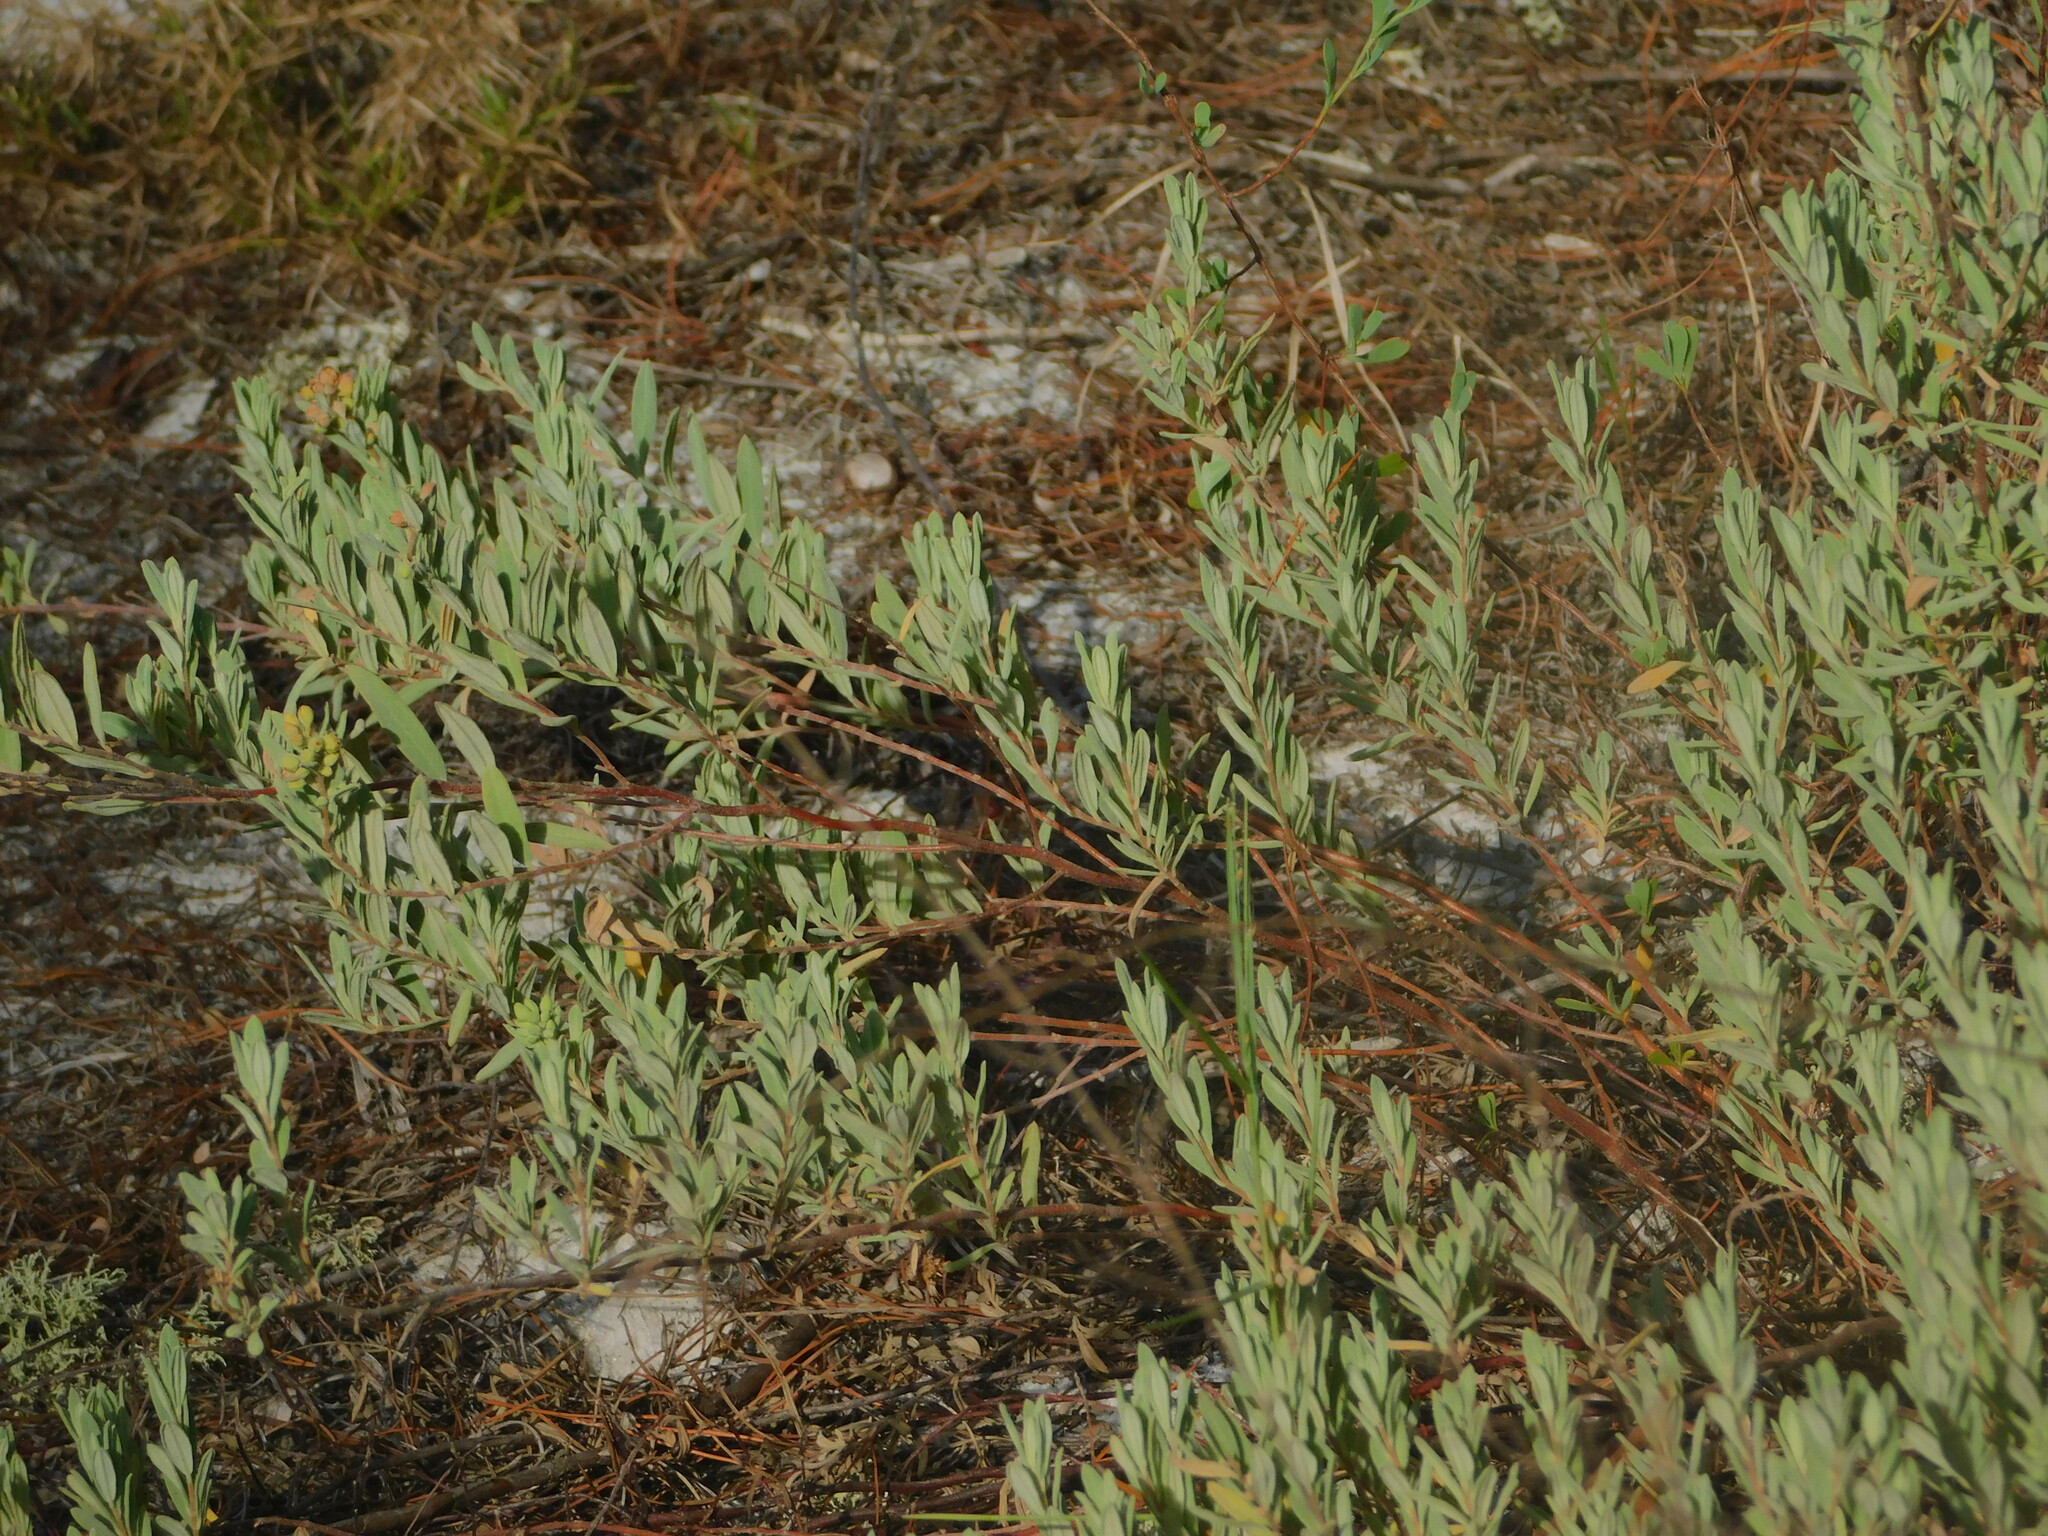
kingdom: Plantae
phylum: Tracheophyta
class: Magnoliopsida
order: Malvales
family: Cistaceae
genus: Crocanthemum
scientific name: Crocanthemum nashii
